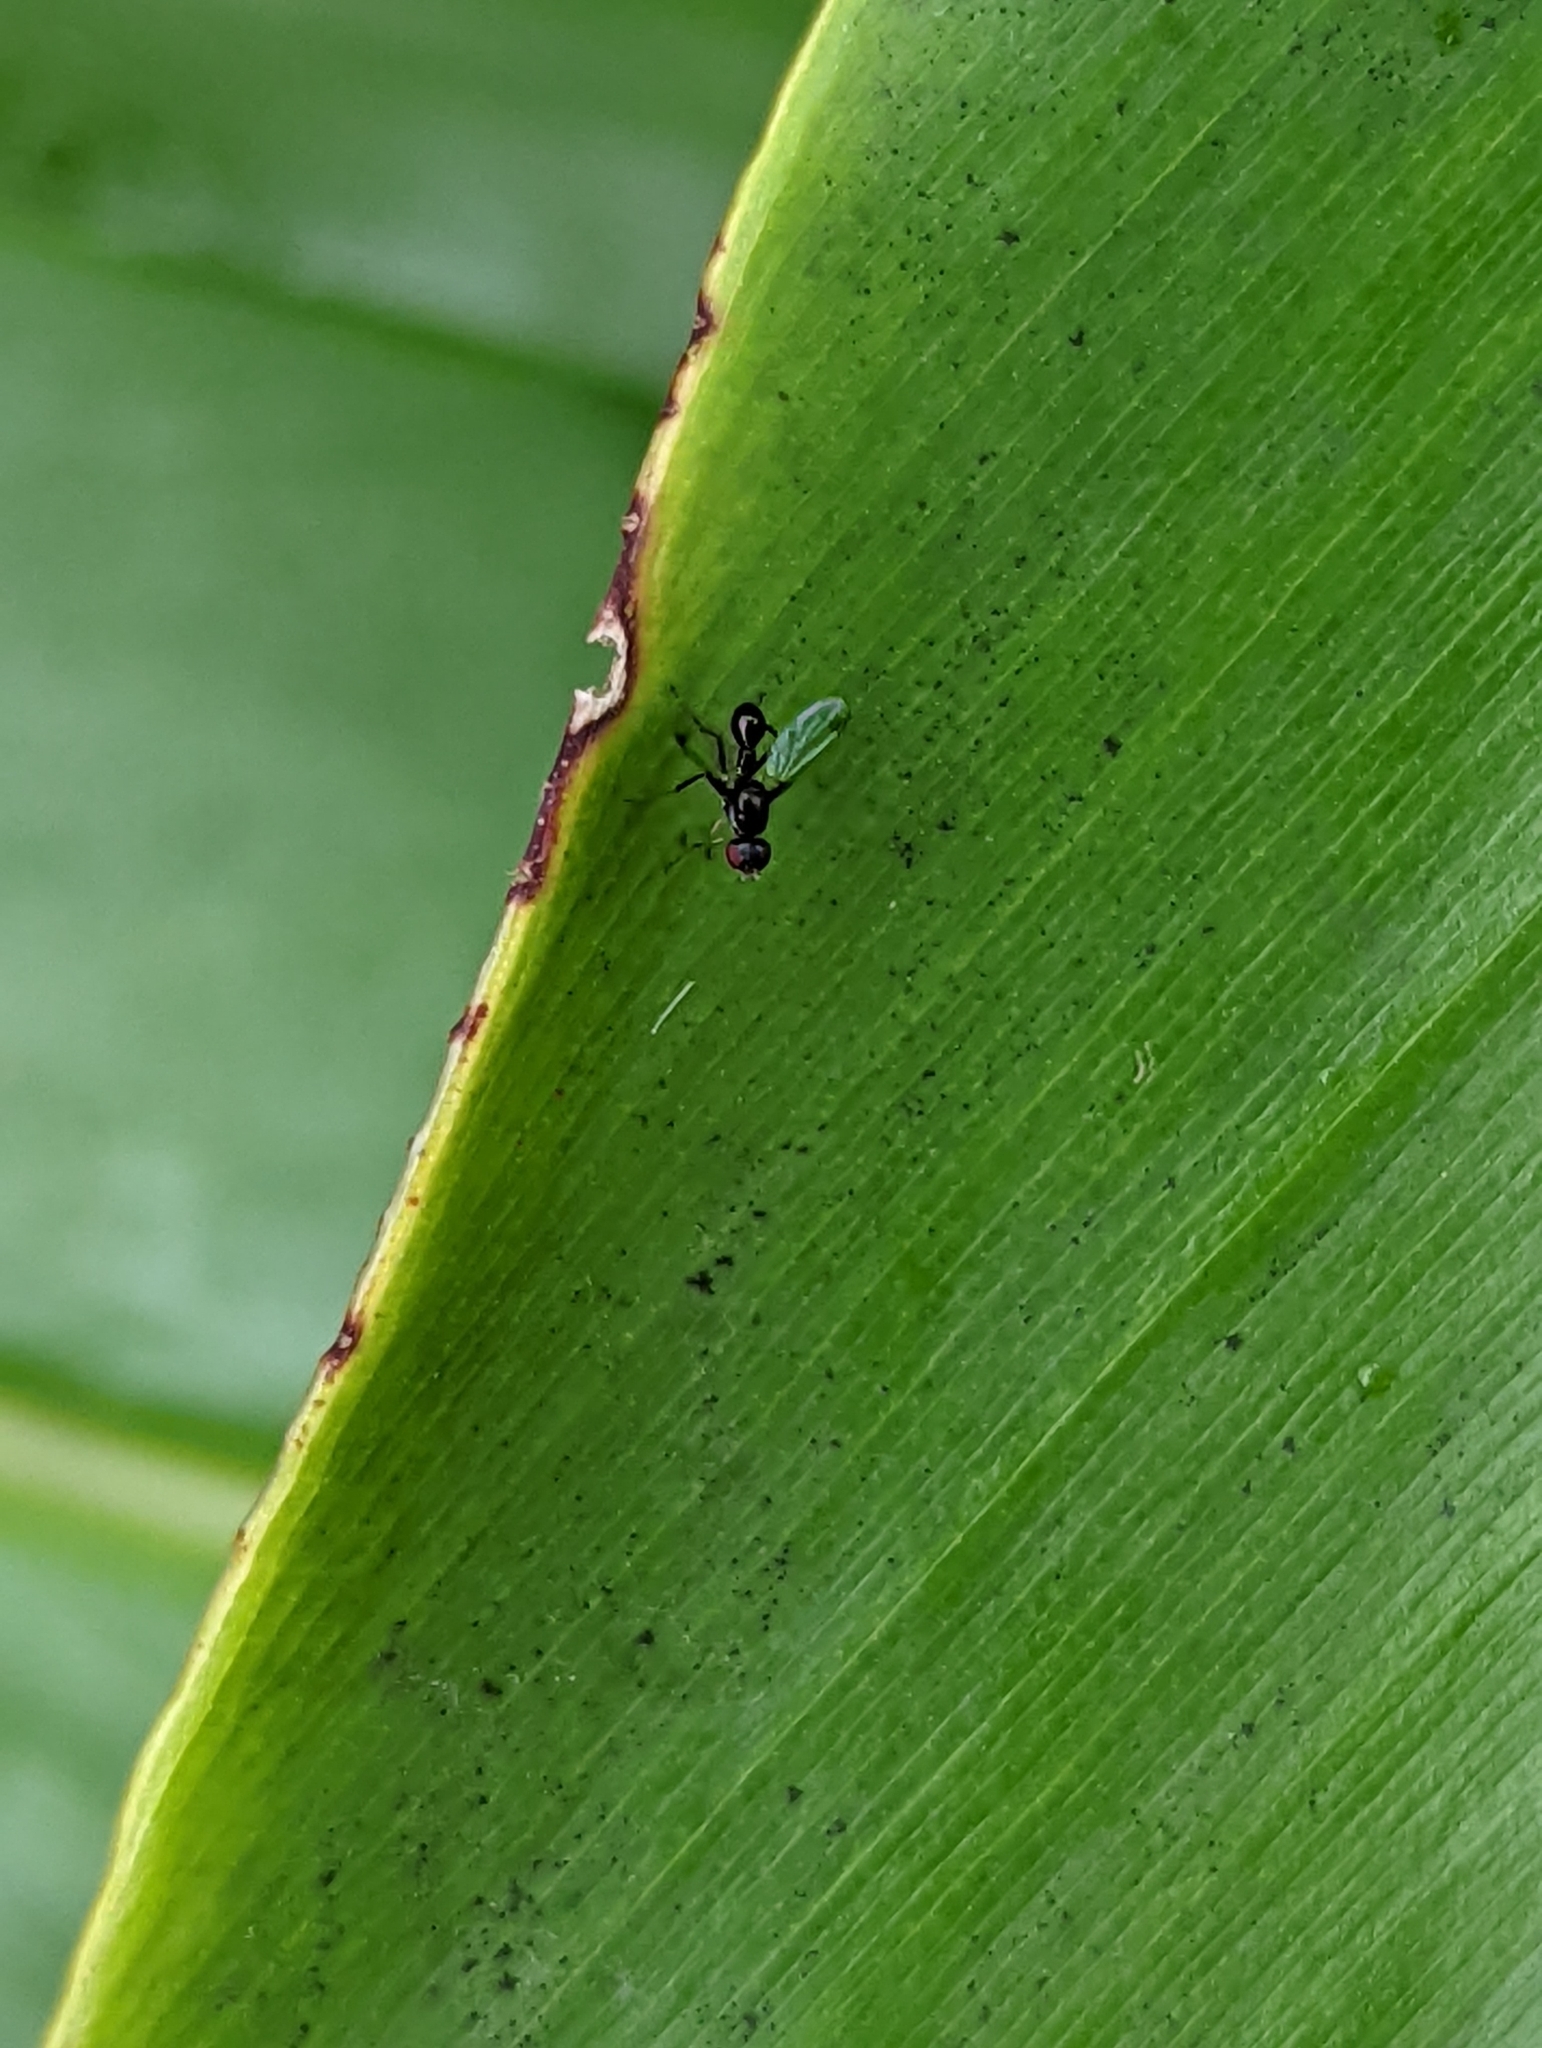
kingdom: Animalia
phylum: Arthropoda
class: Insecta
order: Diptera
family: Sepsidae
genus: Parapalaeosepsis
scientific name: Parapalaeosepsis plebeia
